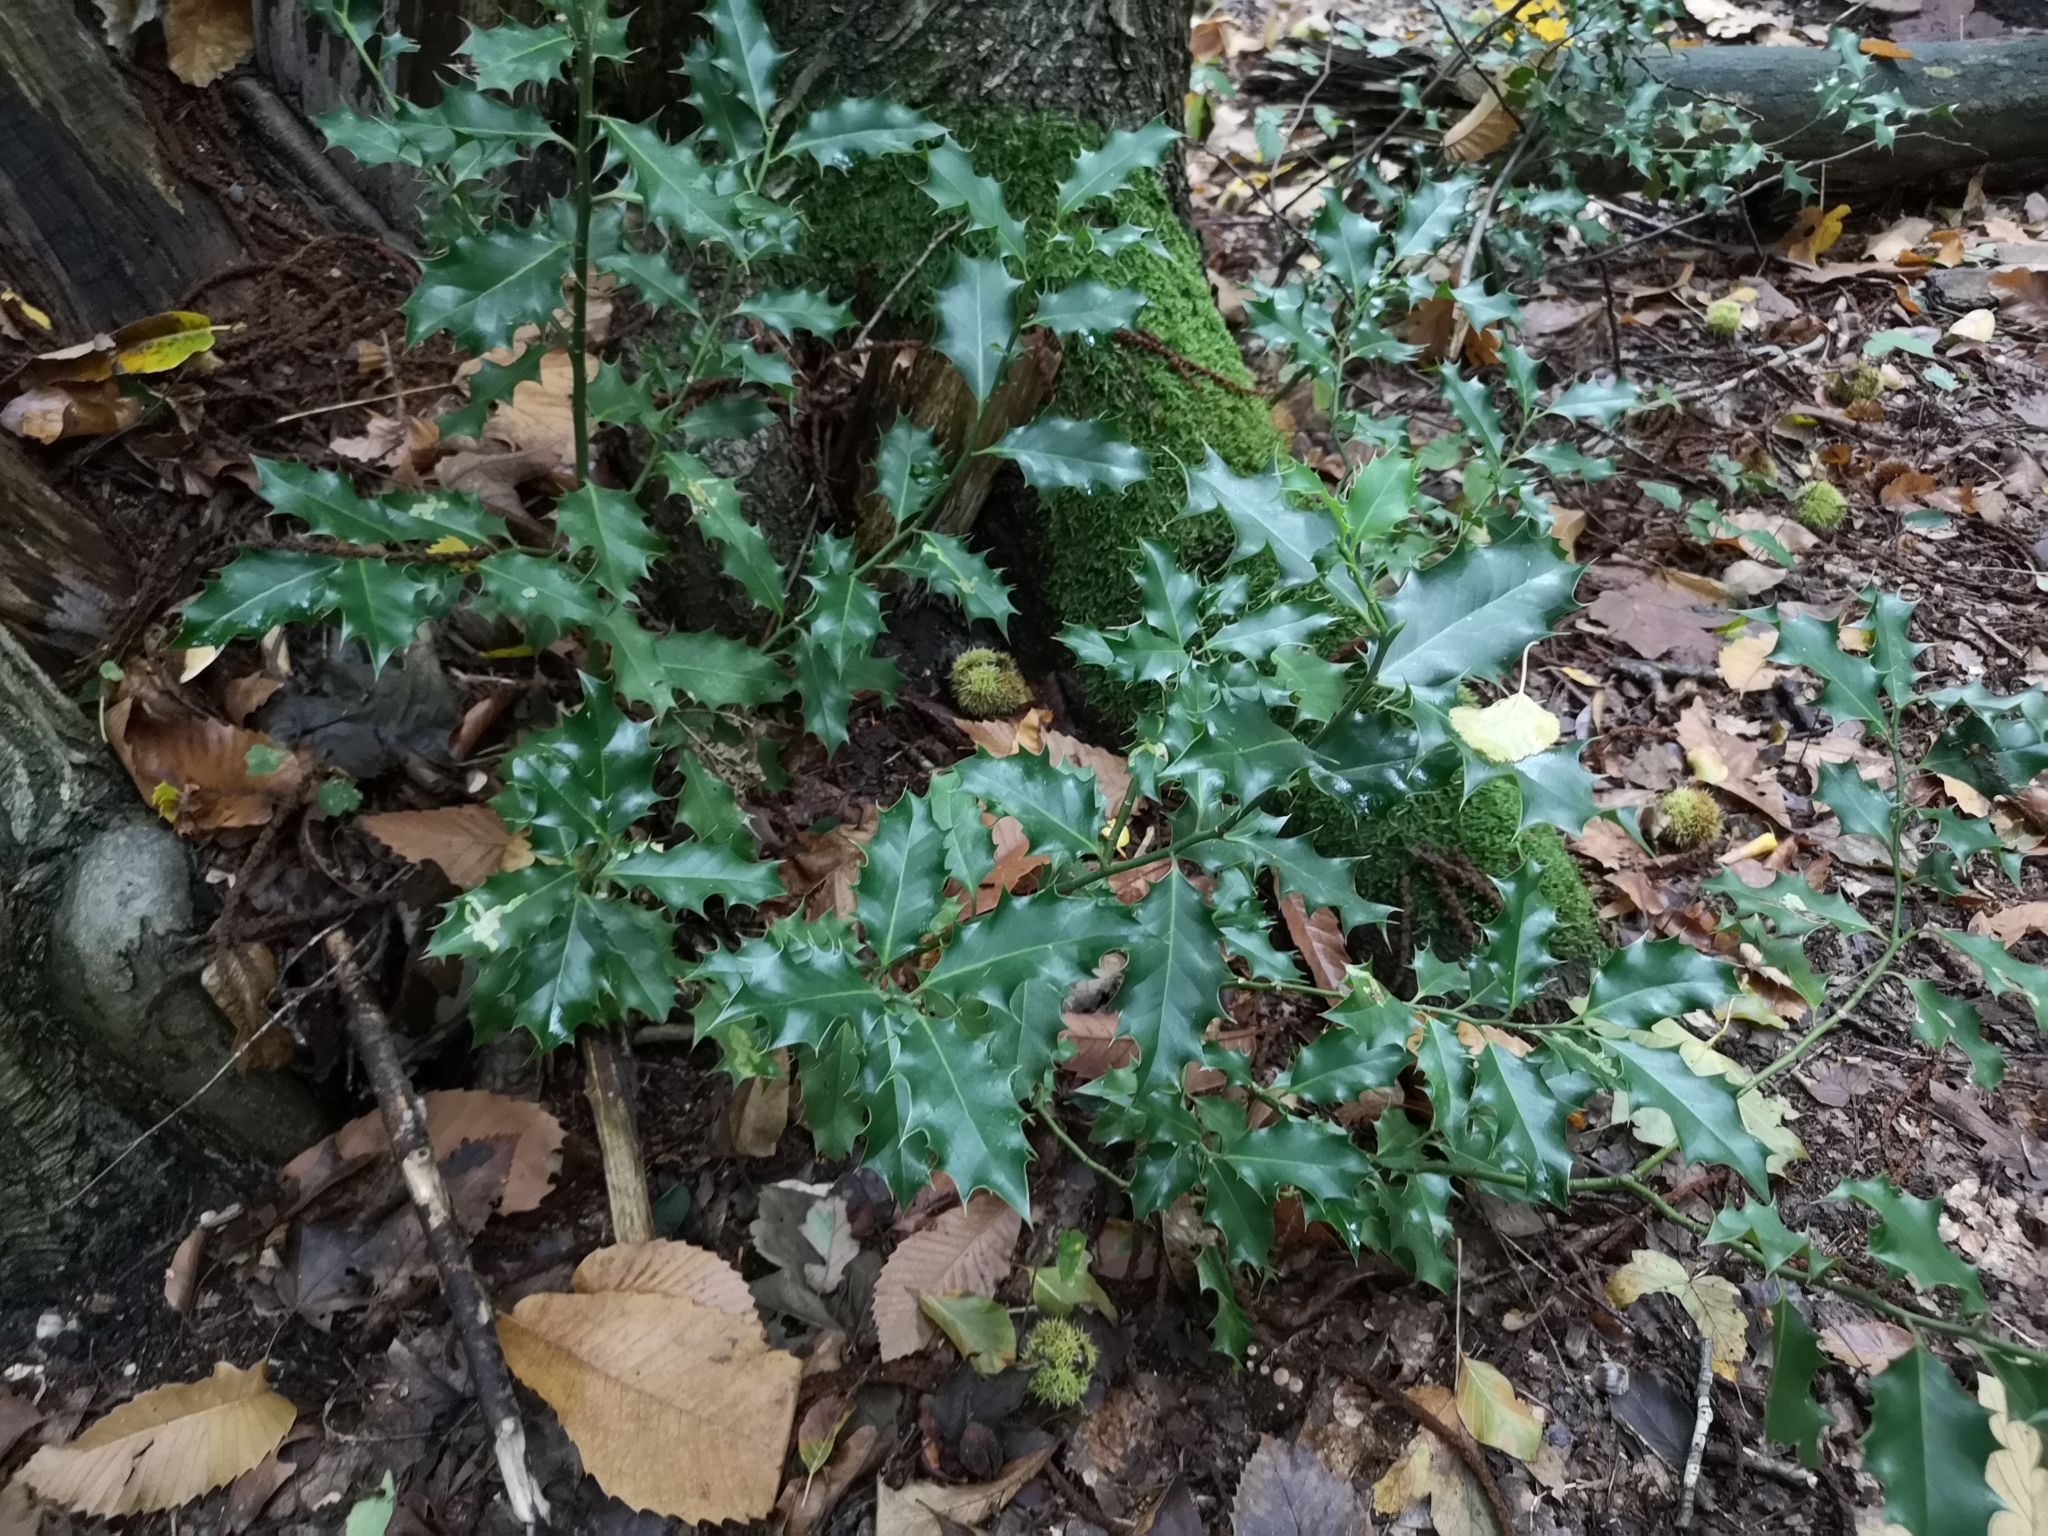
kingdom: Plantae
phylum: Tracheophyta
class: Magnoliopsida
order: Aquifoliales
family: Aquifoliaceae
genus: Ilex
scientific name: Ilex aquifolium
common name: English holly
